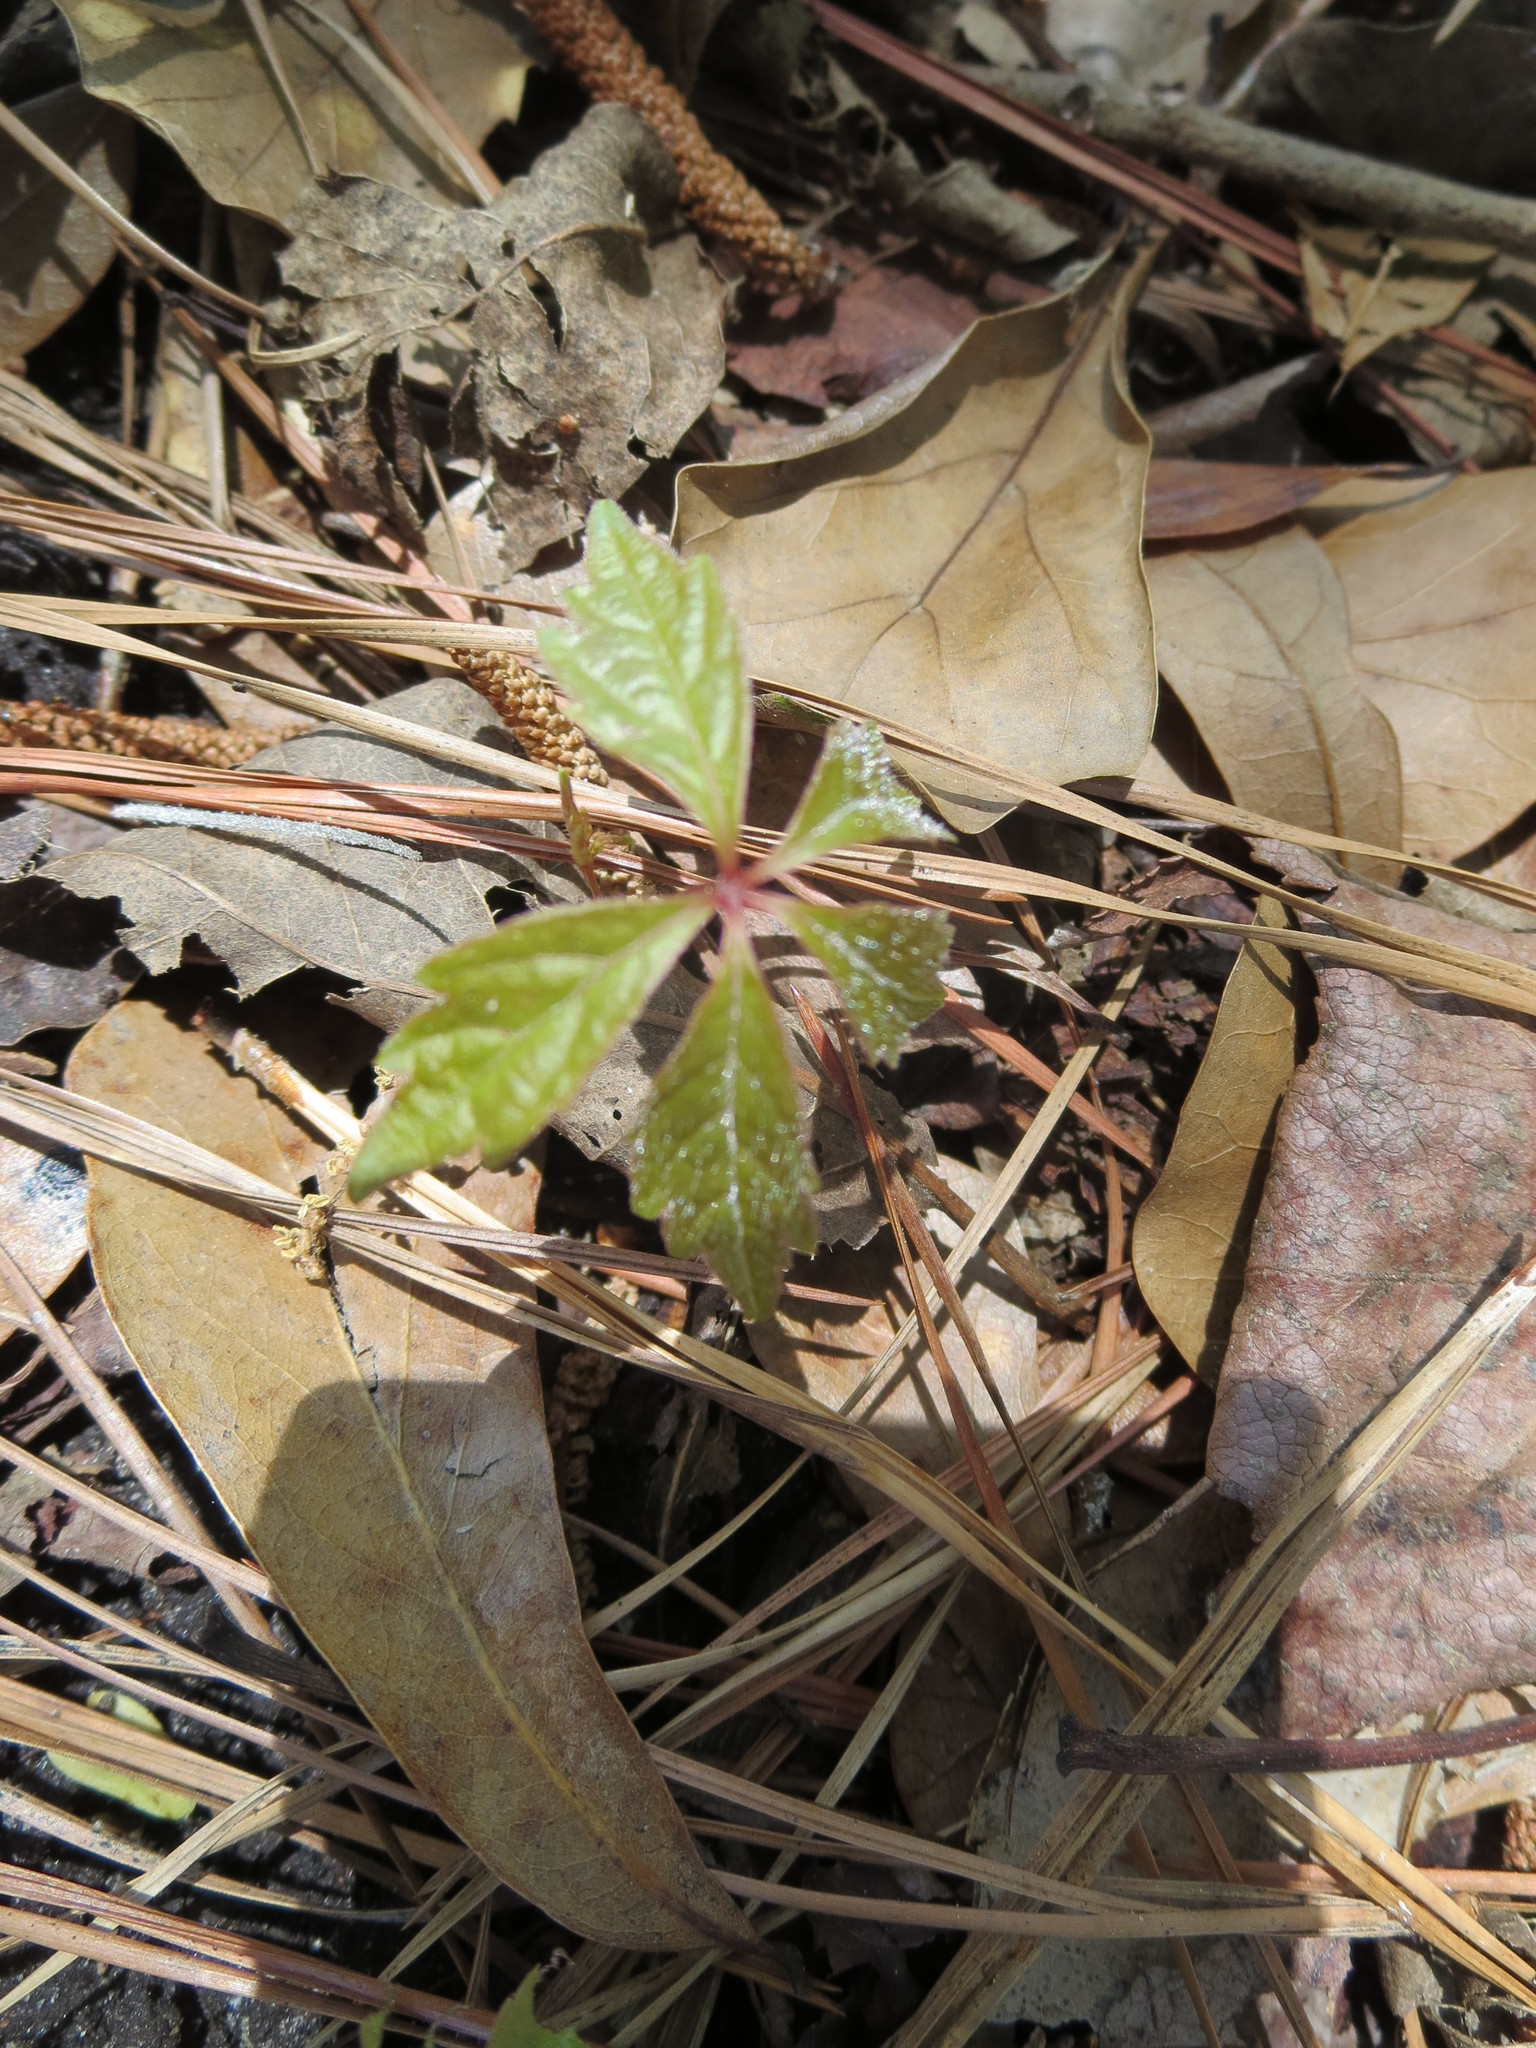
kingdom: Plantae
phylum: Tracheophyta
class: Magnoliopsida
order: Vitales
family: Vitaceae
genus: Parthenocissus
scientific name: Parthenocissus quinquefolia
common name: Virginia-creeper
